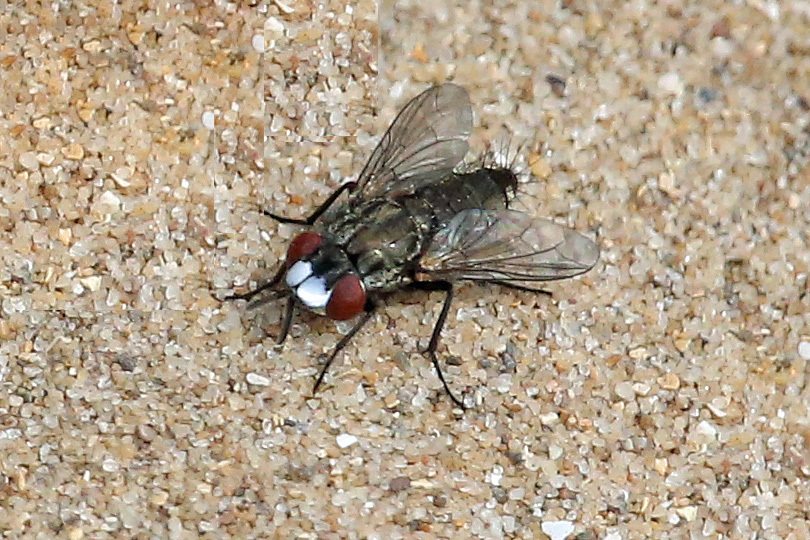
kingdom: Animalia
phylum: Arthropoda
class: Insecta
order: Diptera
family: Sarcophagidae
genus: Metopia
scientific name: Metopia
